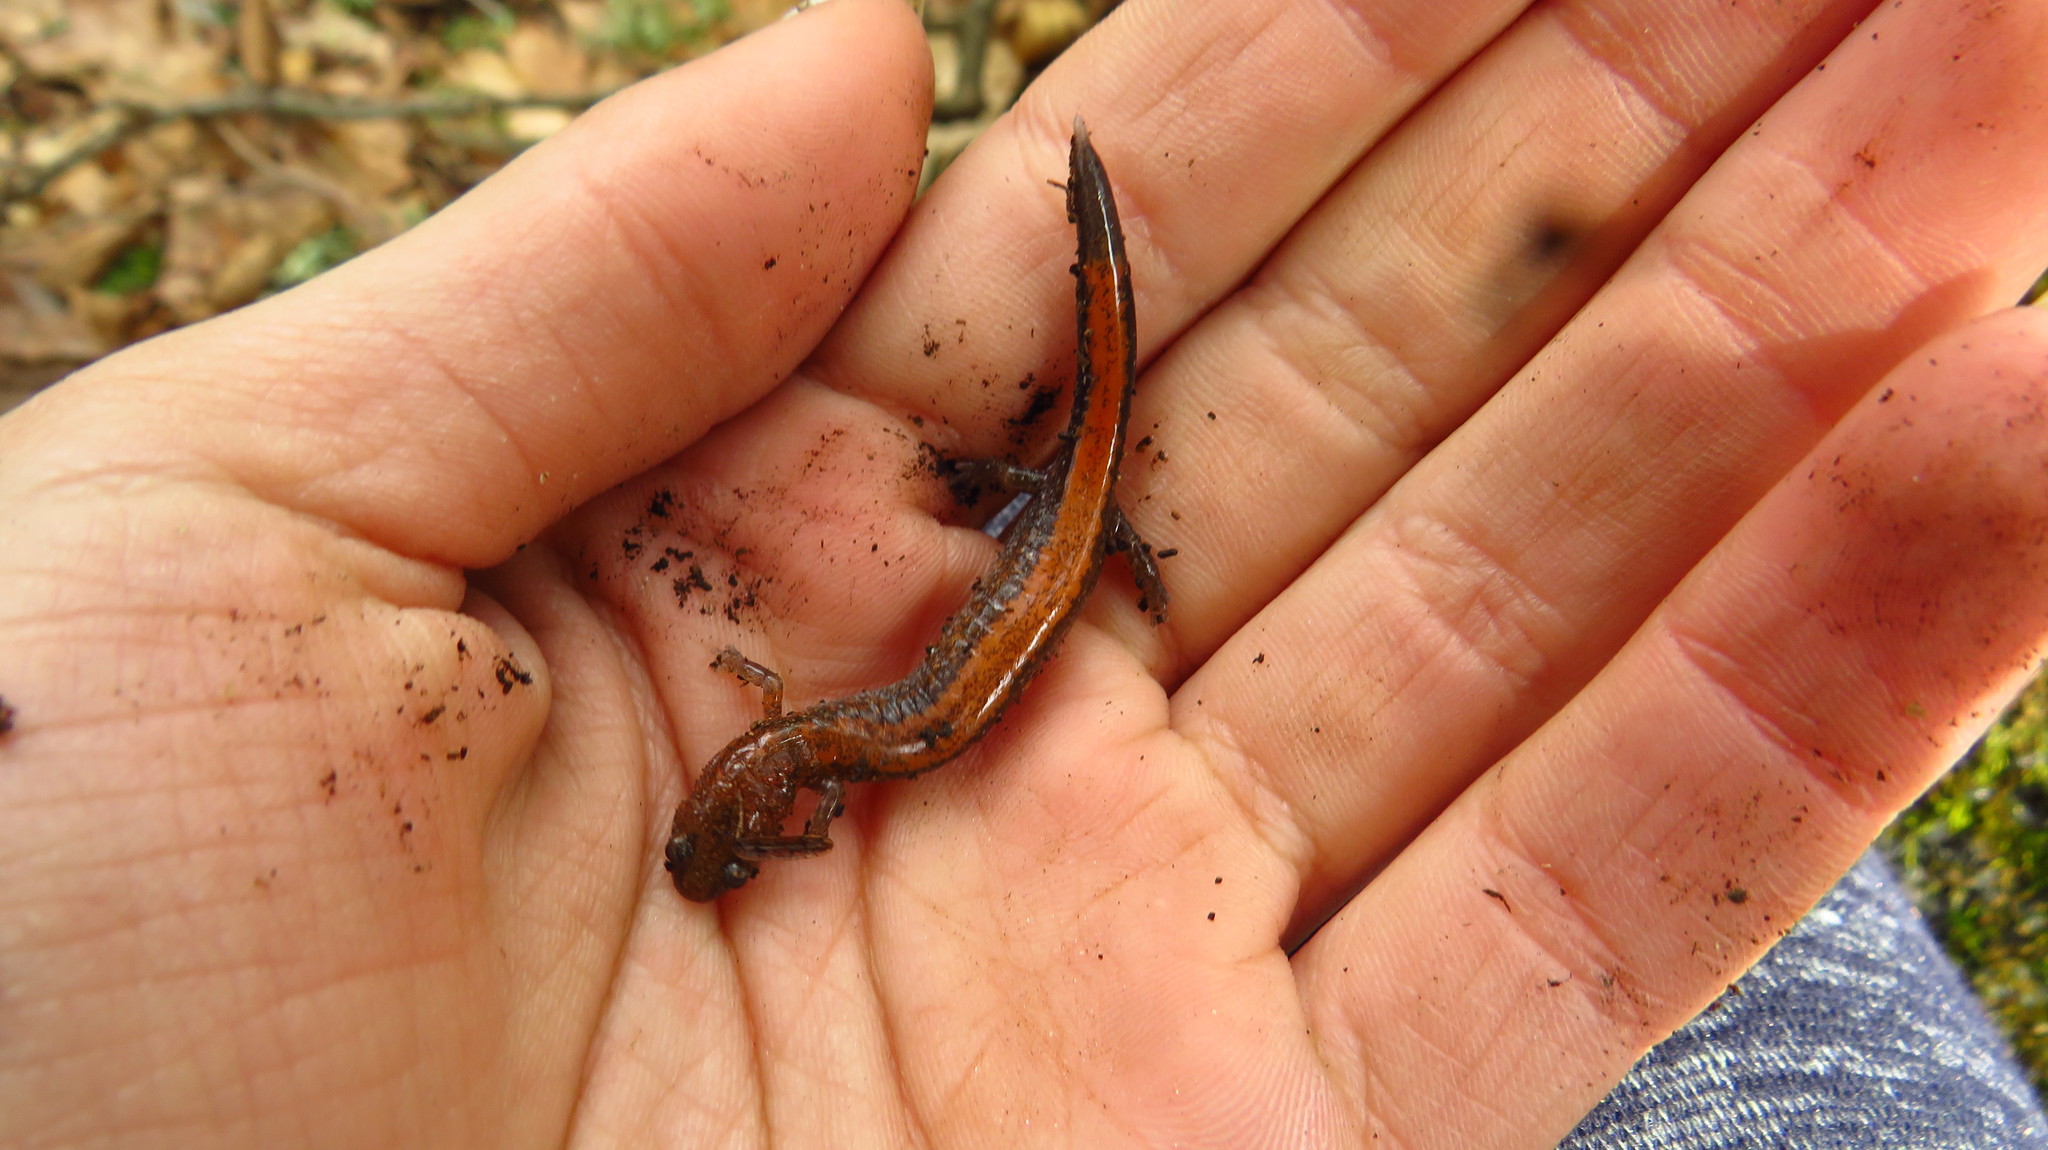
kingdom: Animalia
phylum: Chordata
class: Amphibia
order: Caudata
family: Plethodontidae
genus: Plethodon
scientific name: Plethodon cinereus
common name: Redback salamander
